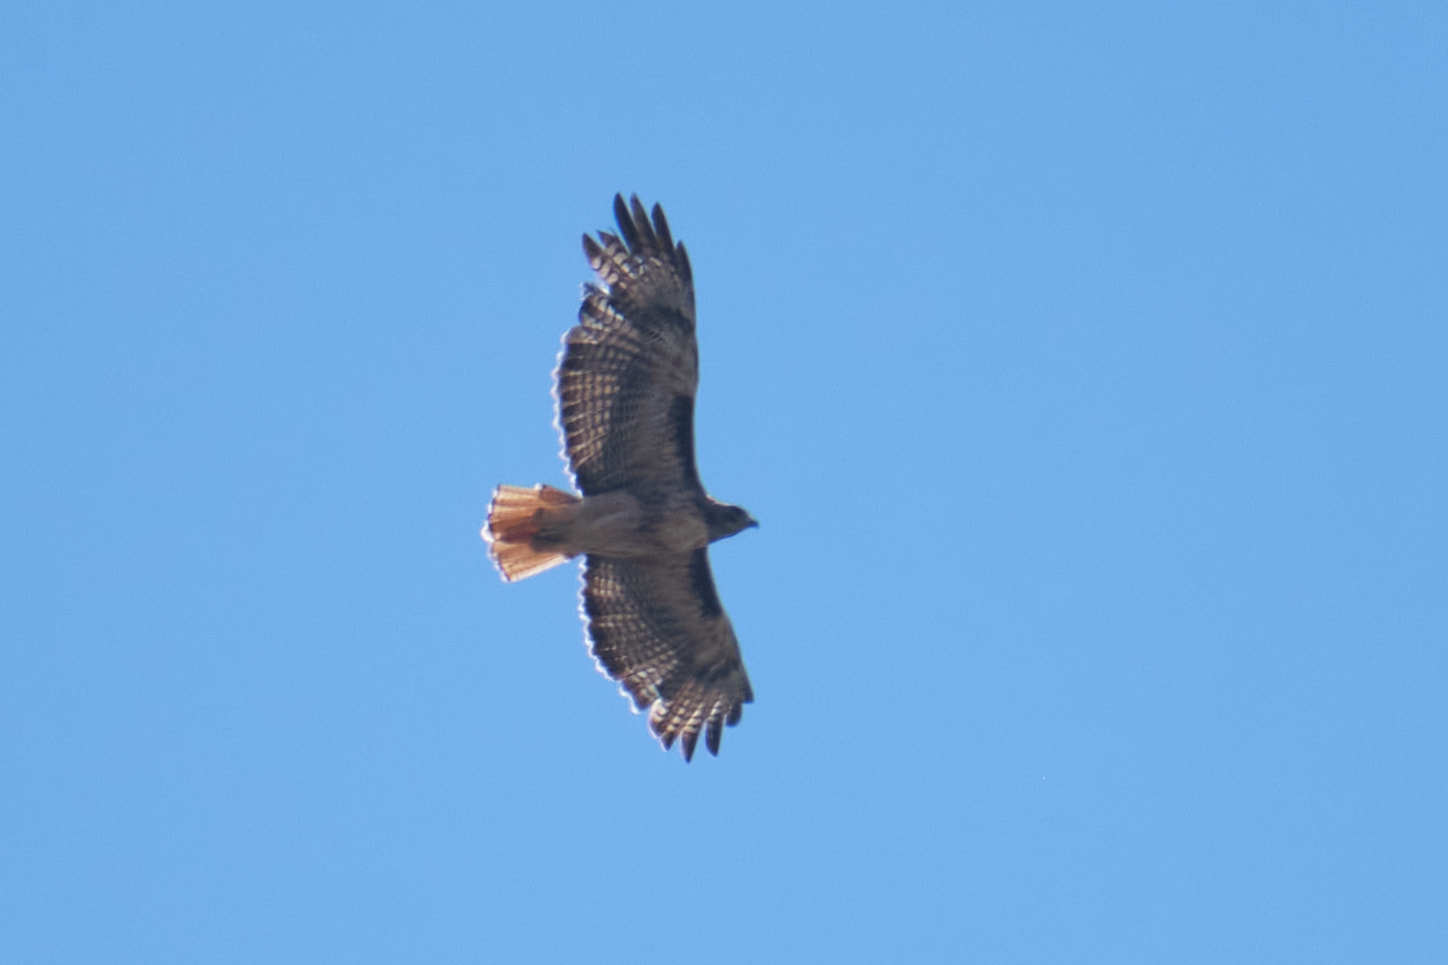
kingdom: Animalia
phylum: Chordata
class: Aves
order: Accipitriformes
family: Accipitridae
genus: Buteo
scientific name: Buteo jamaicensis
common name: Red-tailed hawk
